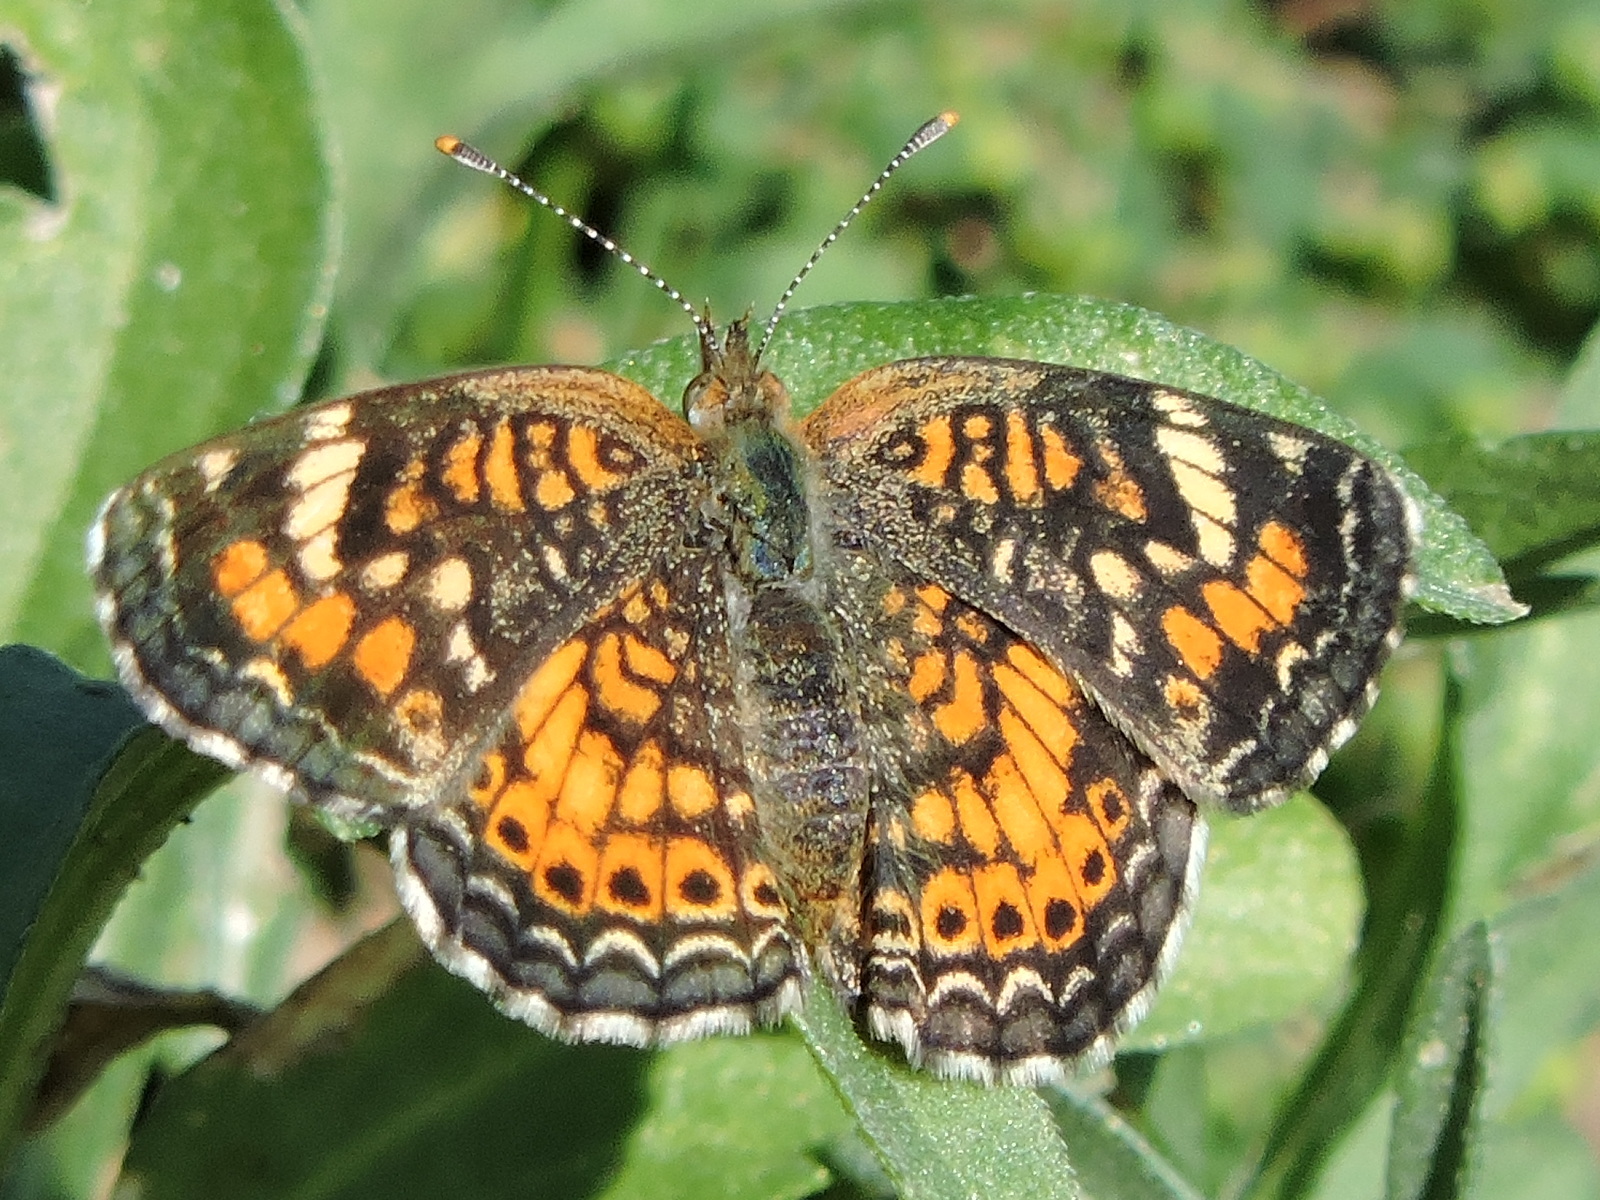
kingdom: Animalia
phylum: Arthropoda
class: Insecta
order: Lepidoptera
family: Nymphalidae
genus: Phyciodes
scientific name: Phyciodes phaon
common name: Phaon crescent
